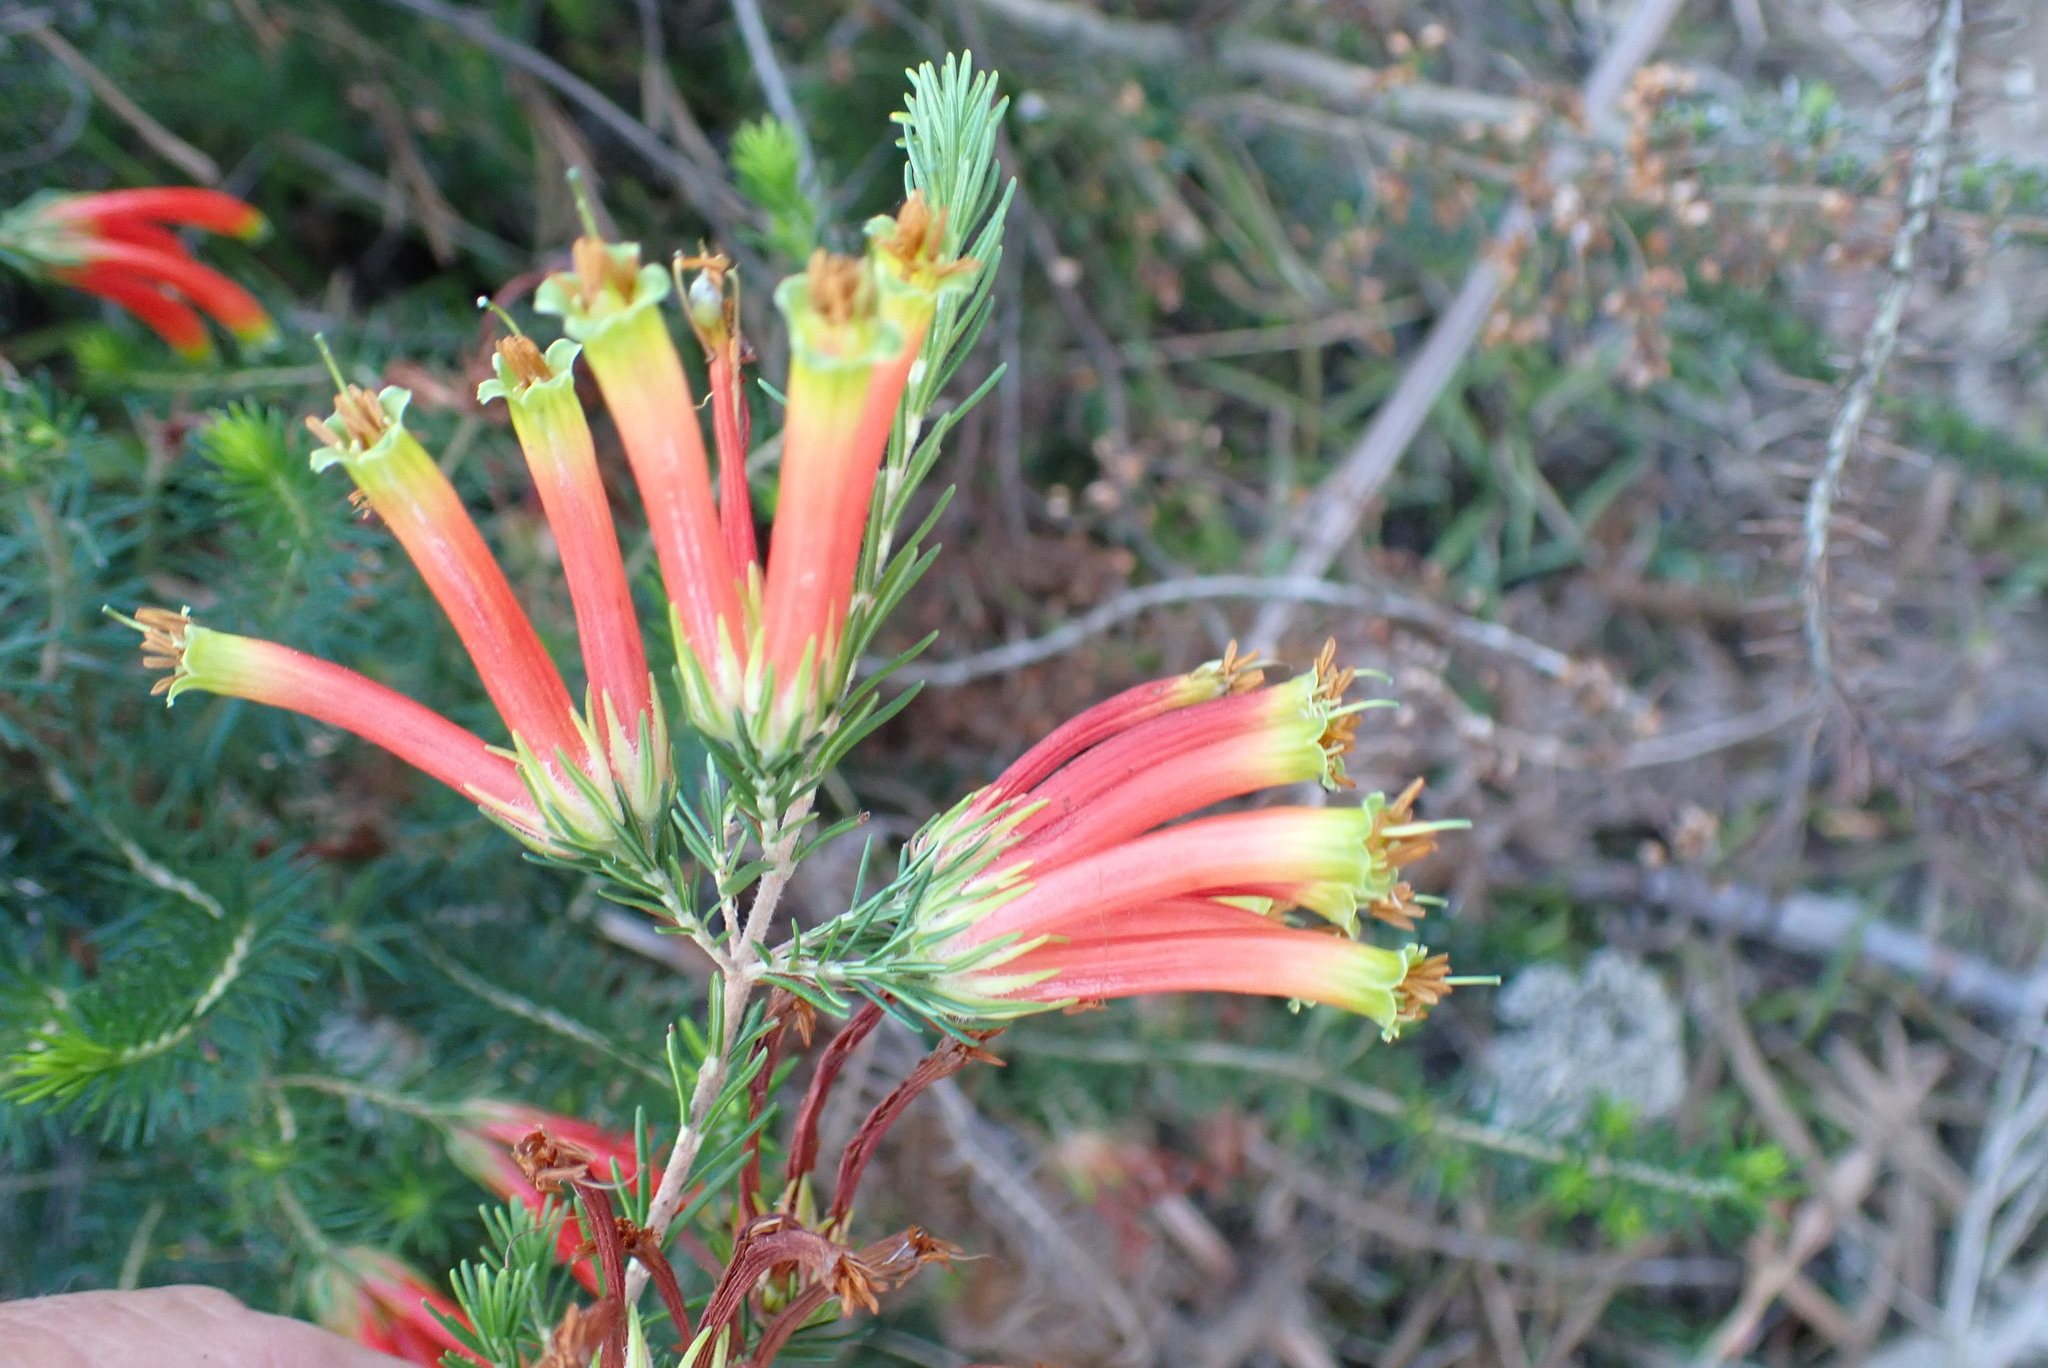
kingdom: Plantae
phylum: Tracheophyta
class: Magnoliopsida
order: Ericales
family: Ericaceae
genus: Erica
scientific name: Erica unicolor
